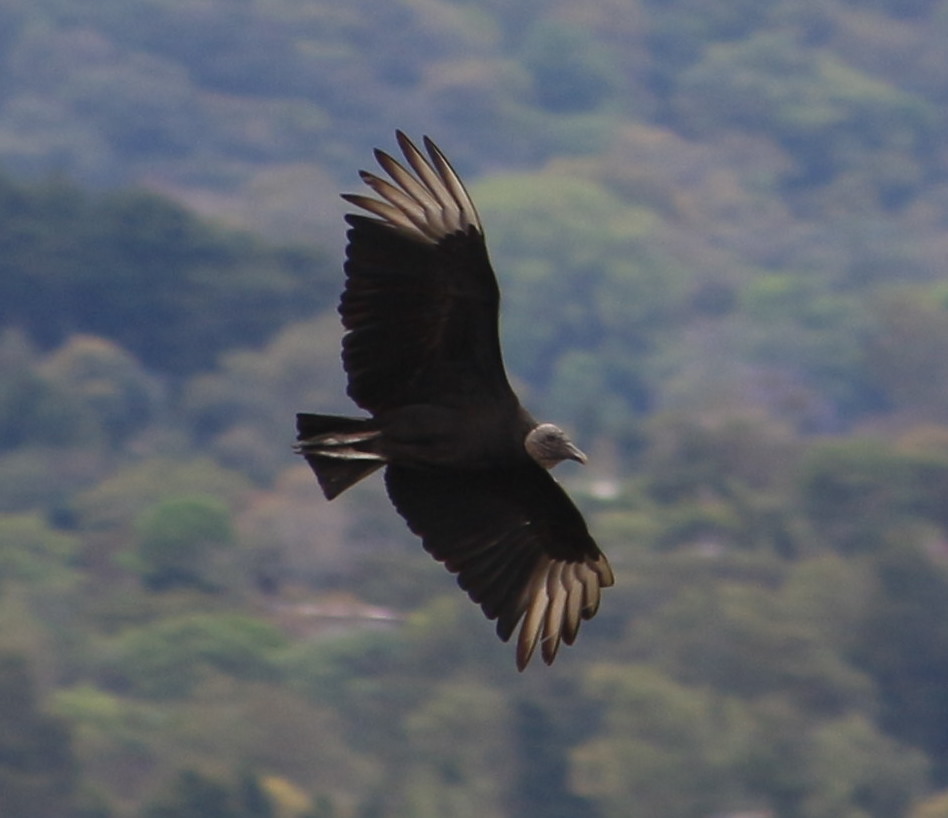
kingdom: Animalia
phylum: Chordata
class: Aves
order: Accipitriformes
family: Cathartidae
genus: Coragyps
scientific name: Coragyps atratus
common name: Black vulture
